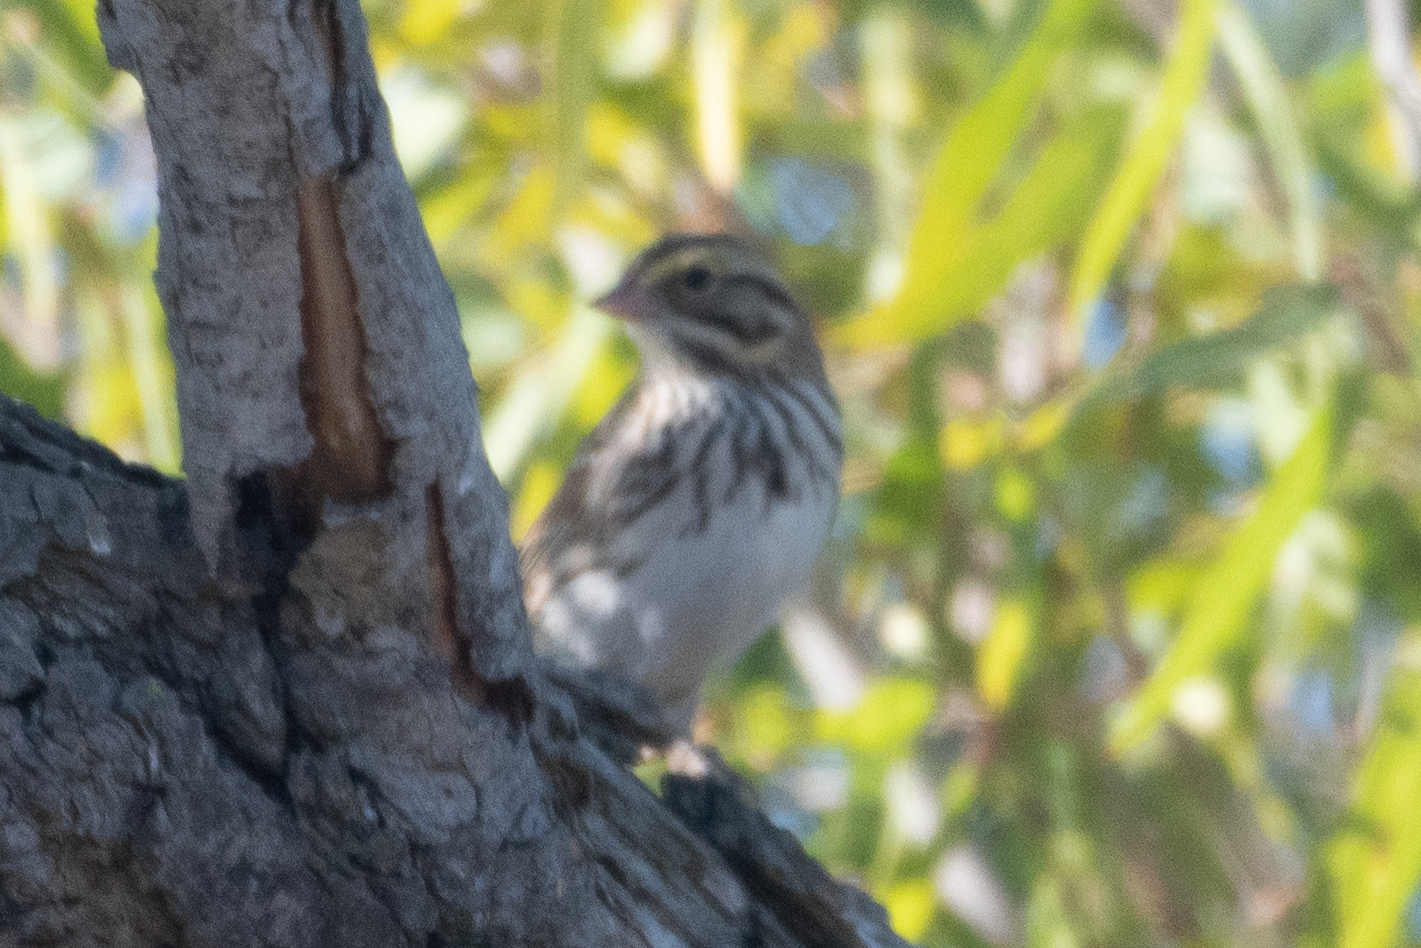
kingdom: Animalia
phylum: Chordata
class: Aves
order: Passeriformes
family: Passerellidae
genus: Passerculus
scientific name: Passerculus sandwichensis
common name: Savannah sparrow
